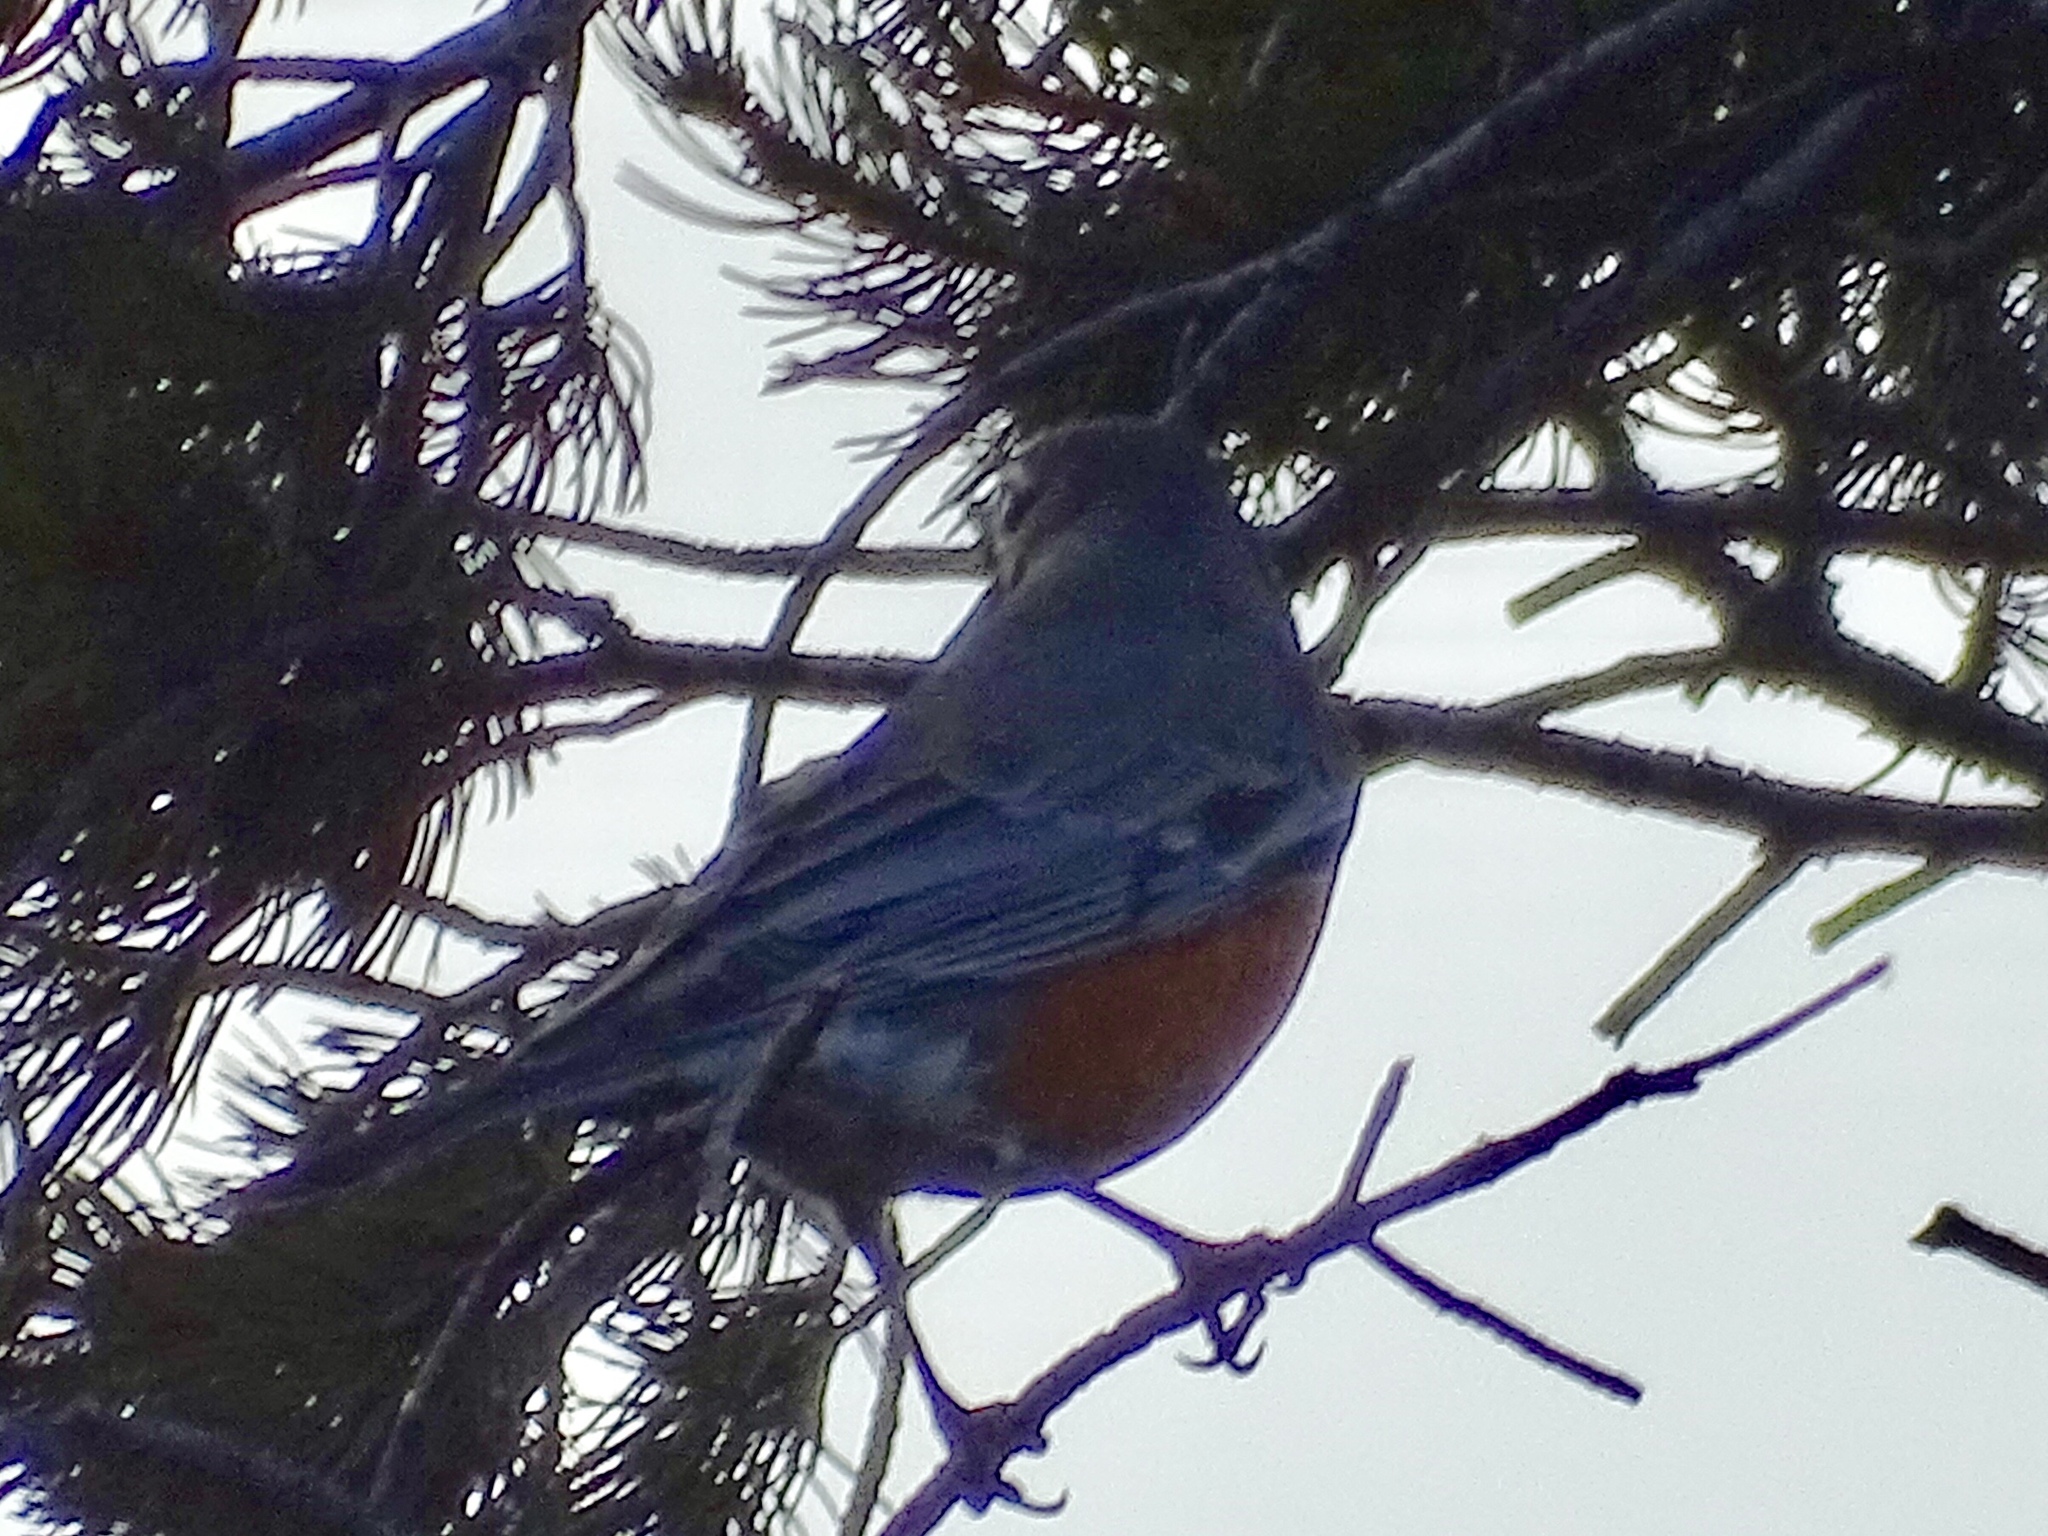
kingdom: Animalia
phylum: Chordata
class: Aves
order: Passeriformes
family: Turdidae
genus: Turdus
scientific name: Turdus migratorius
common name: American robin
